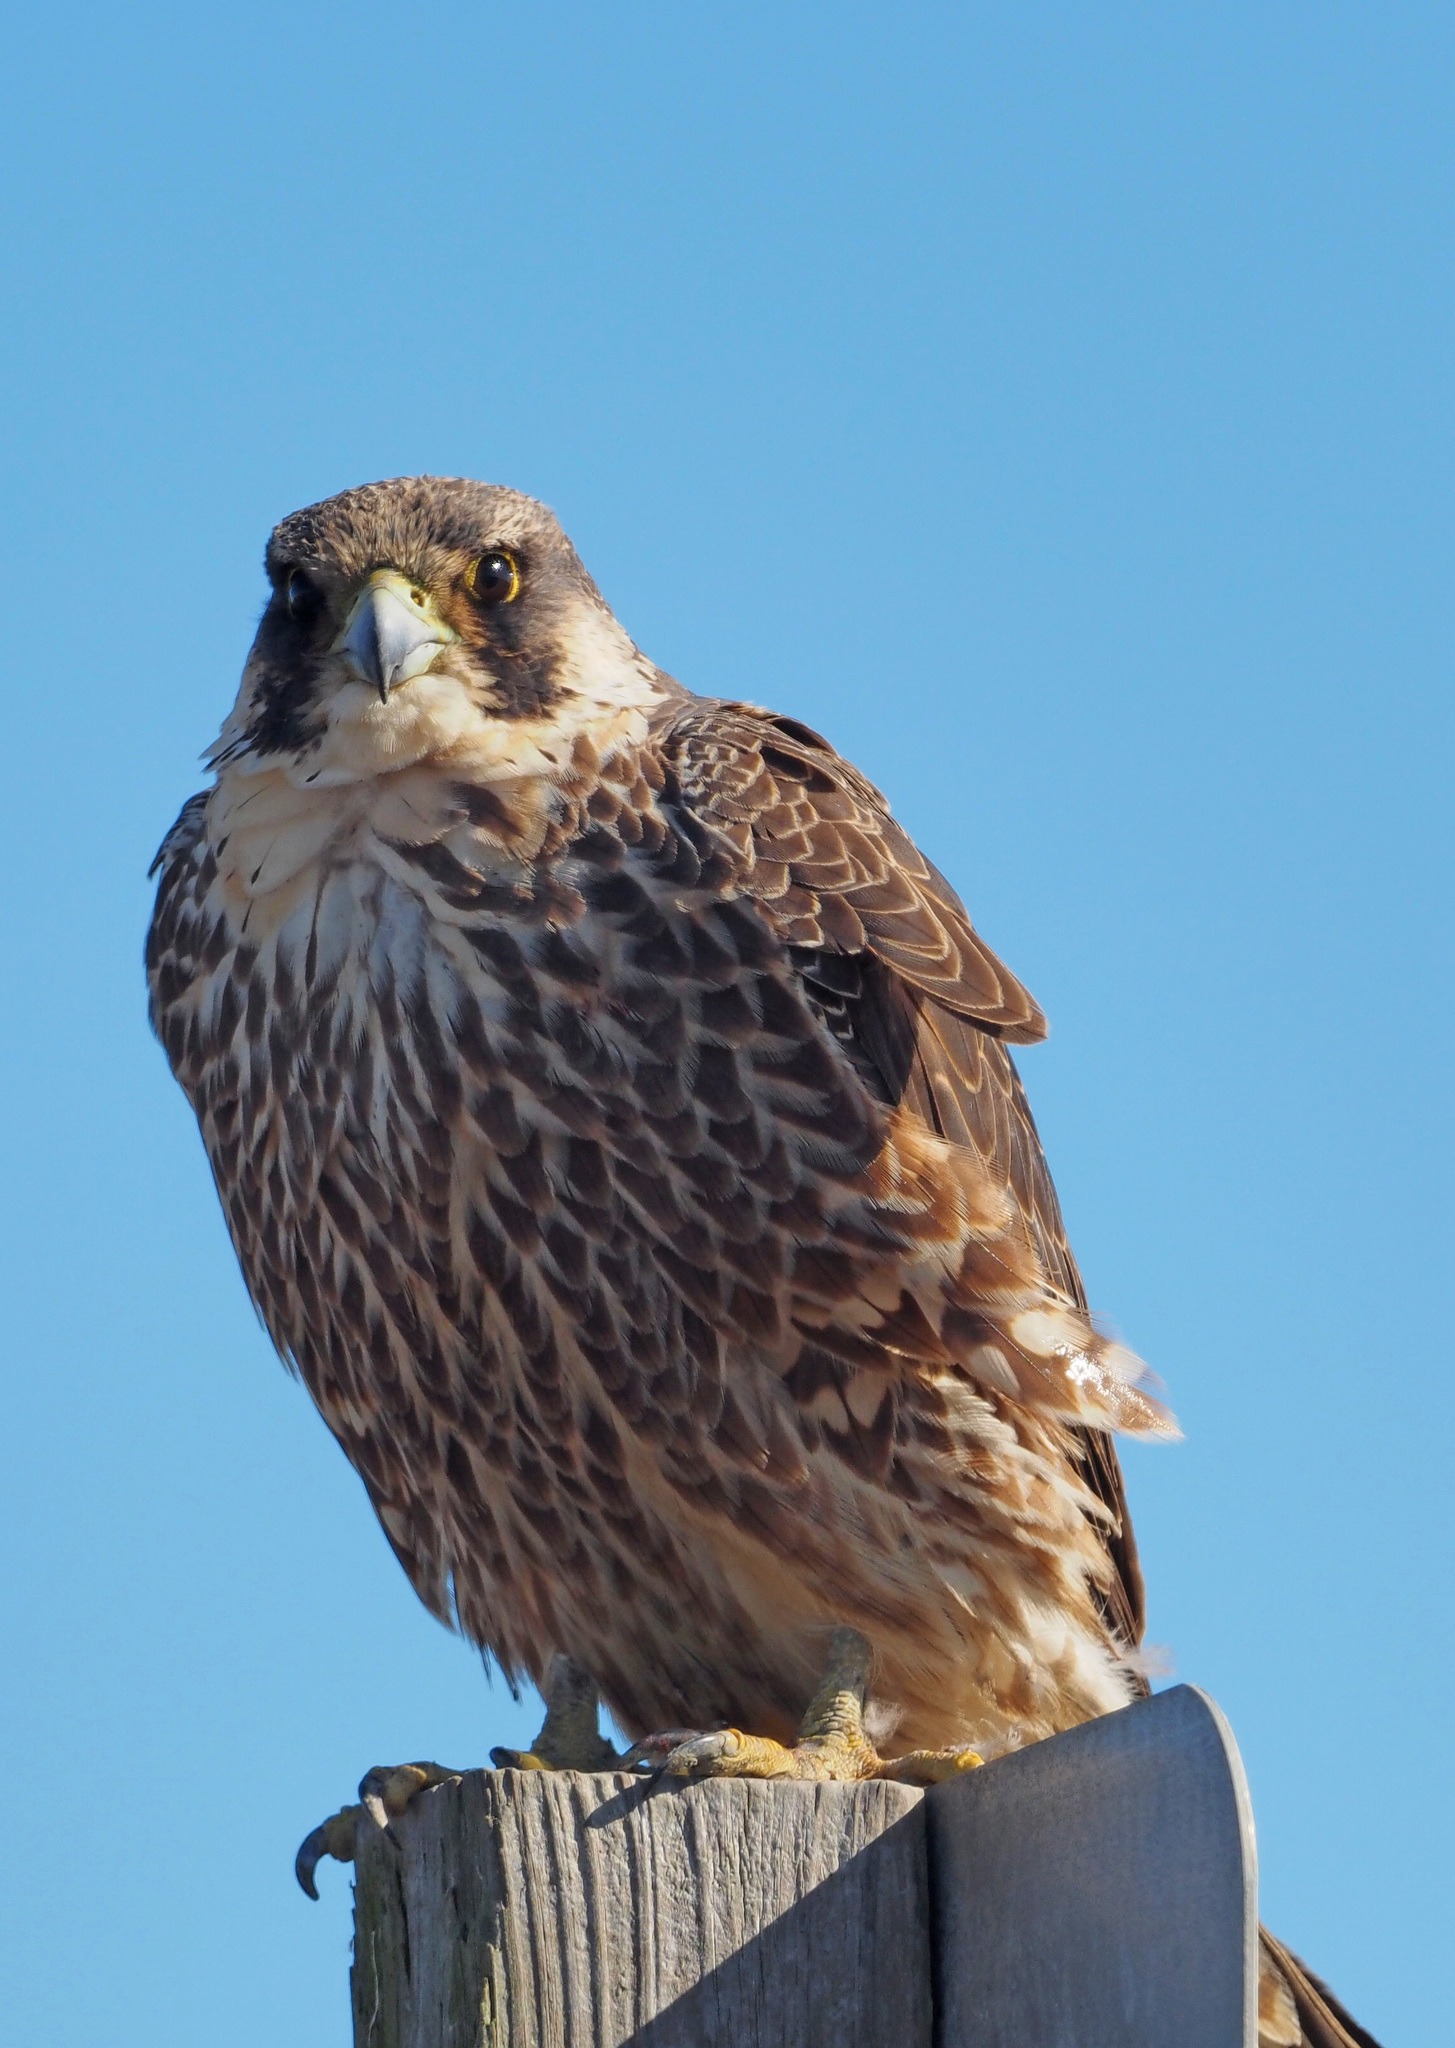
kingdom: Animalia
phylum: Chordata
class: Aves
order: Falconiformes
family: Falconidae
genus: Falco
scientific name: Falco peregrinus
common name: Peregrine falcon
